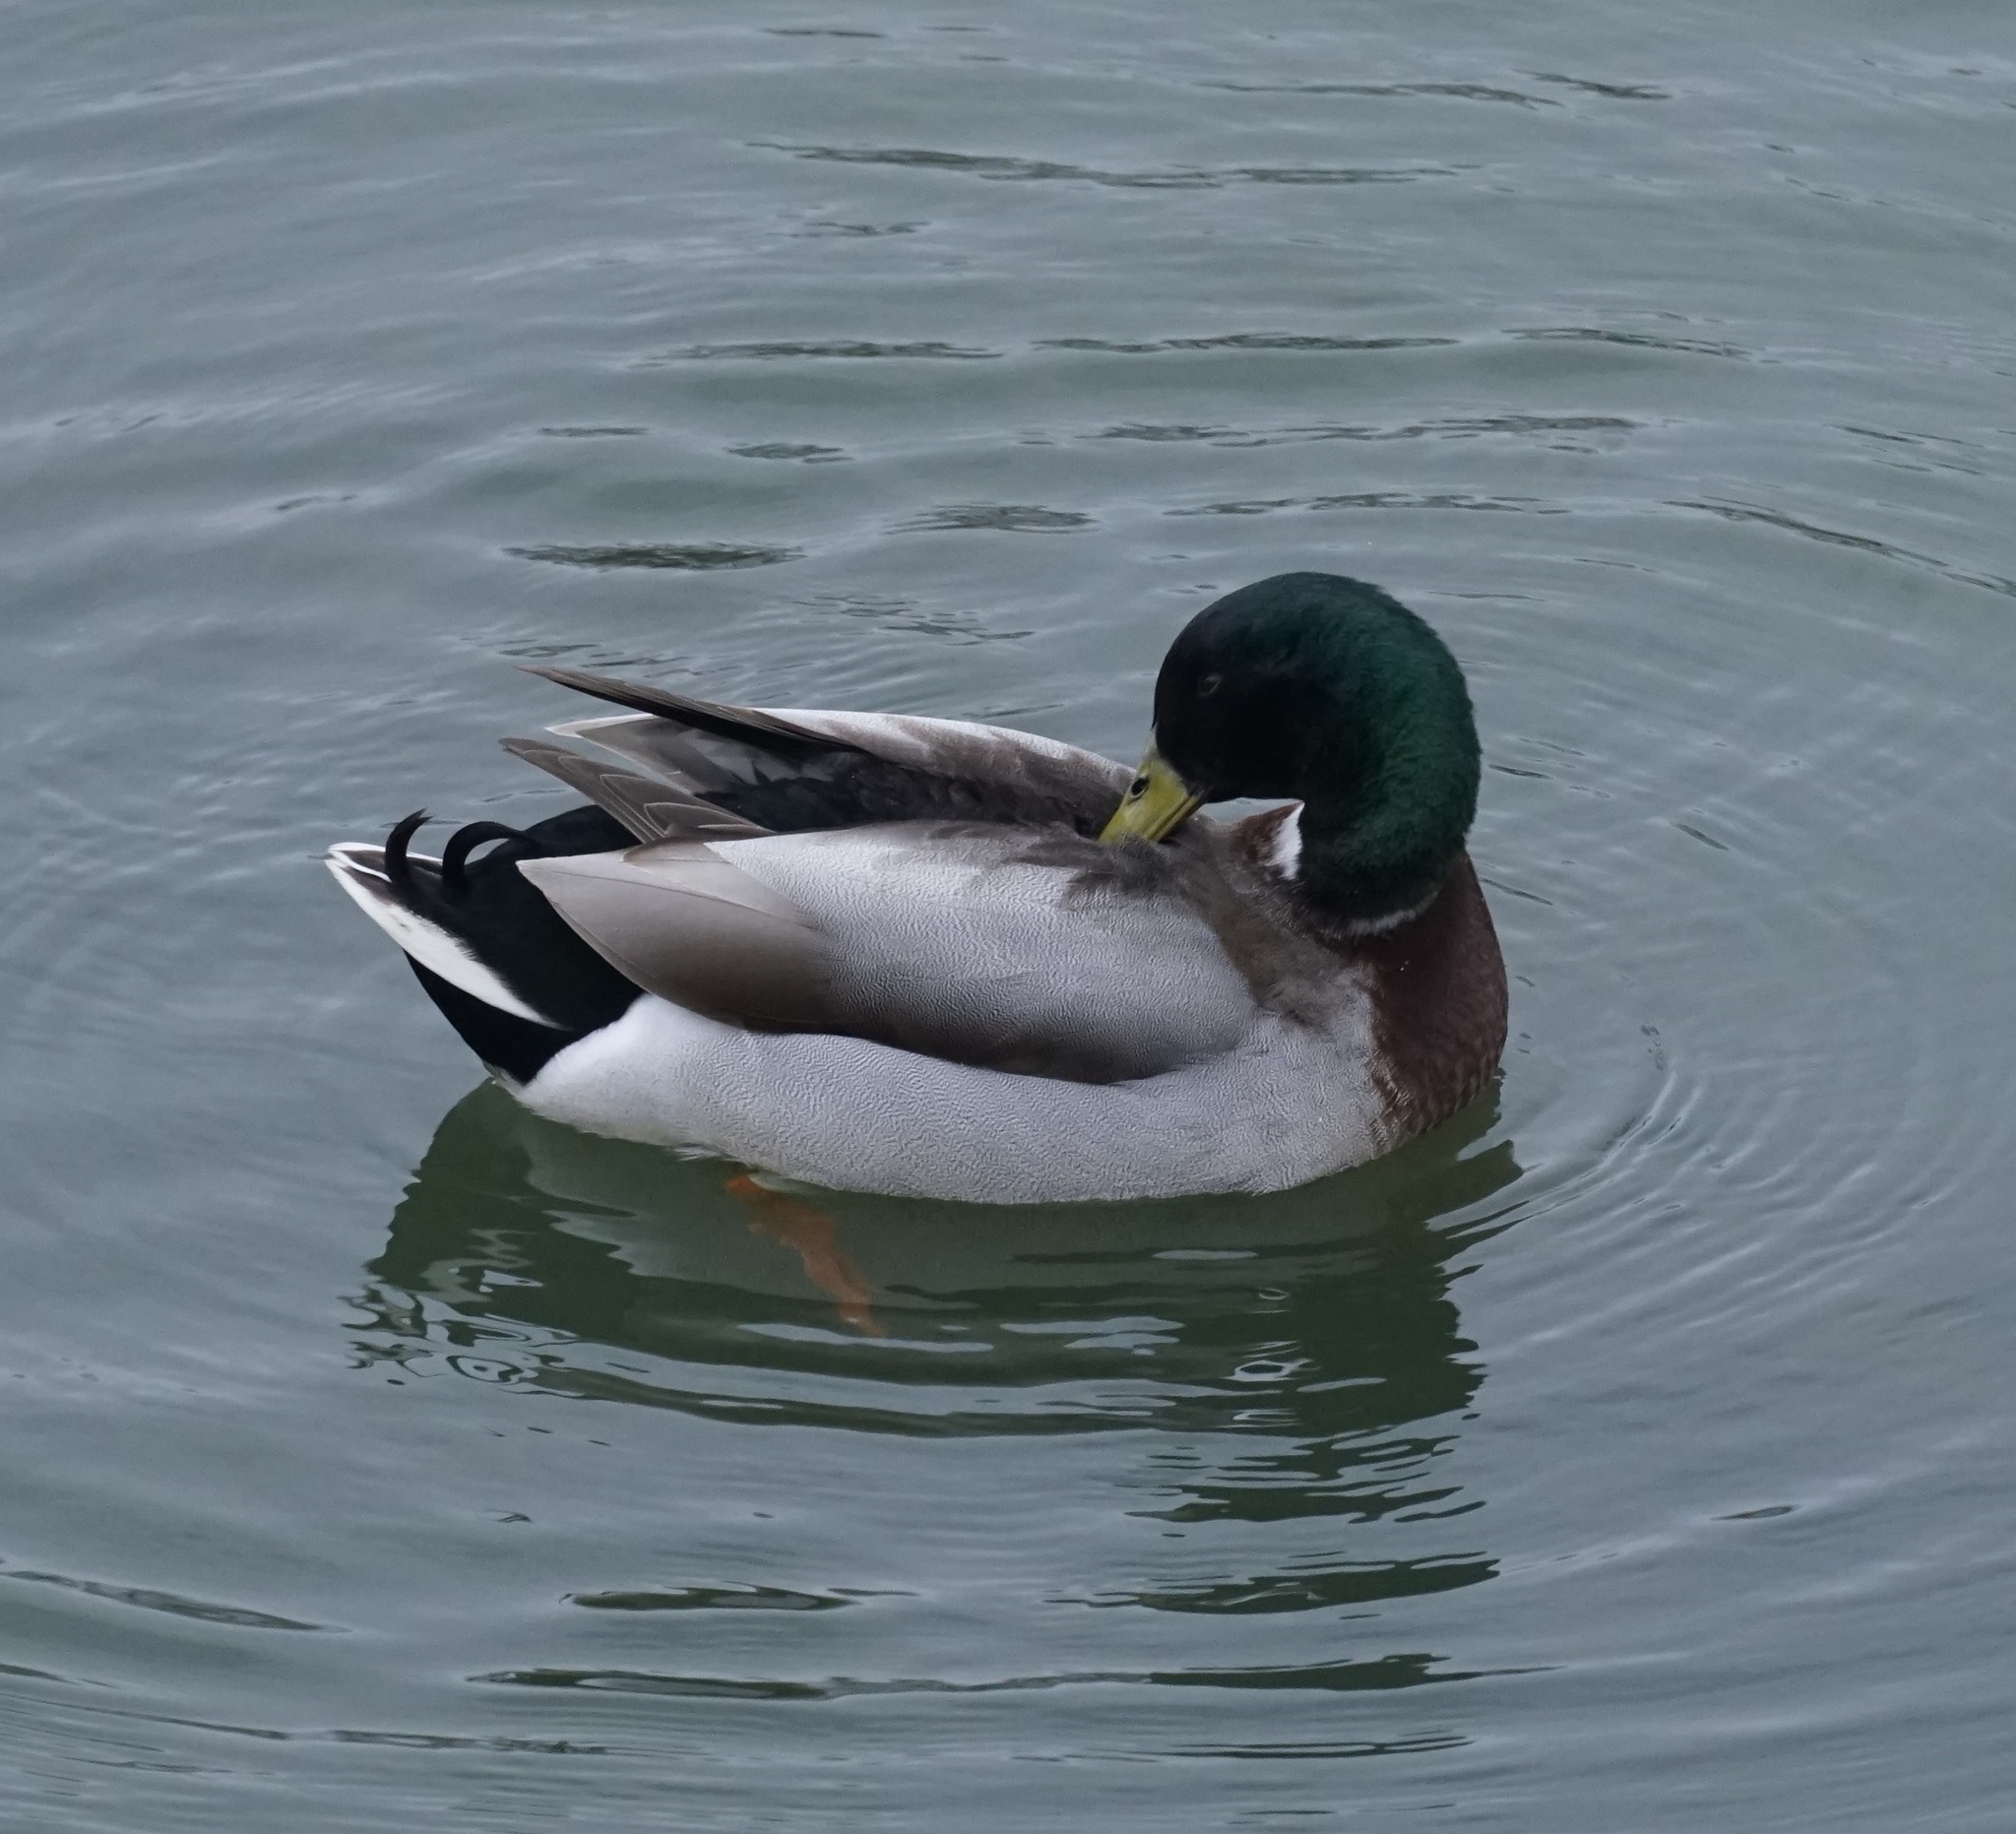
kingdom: Animalia
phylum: Chordata
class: Aves
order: Anseriformes
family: Anatidae
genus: Anas
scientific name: Anas platyrhynchos
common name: Mallard
